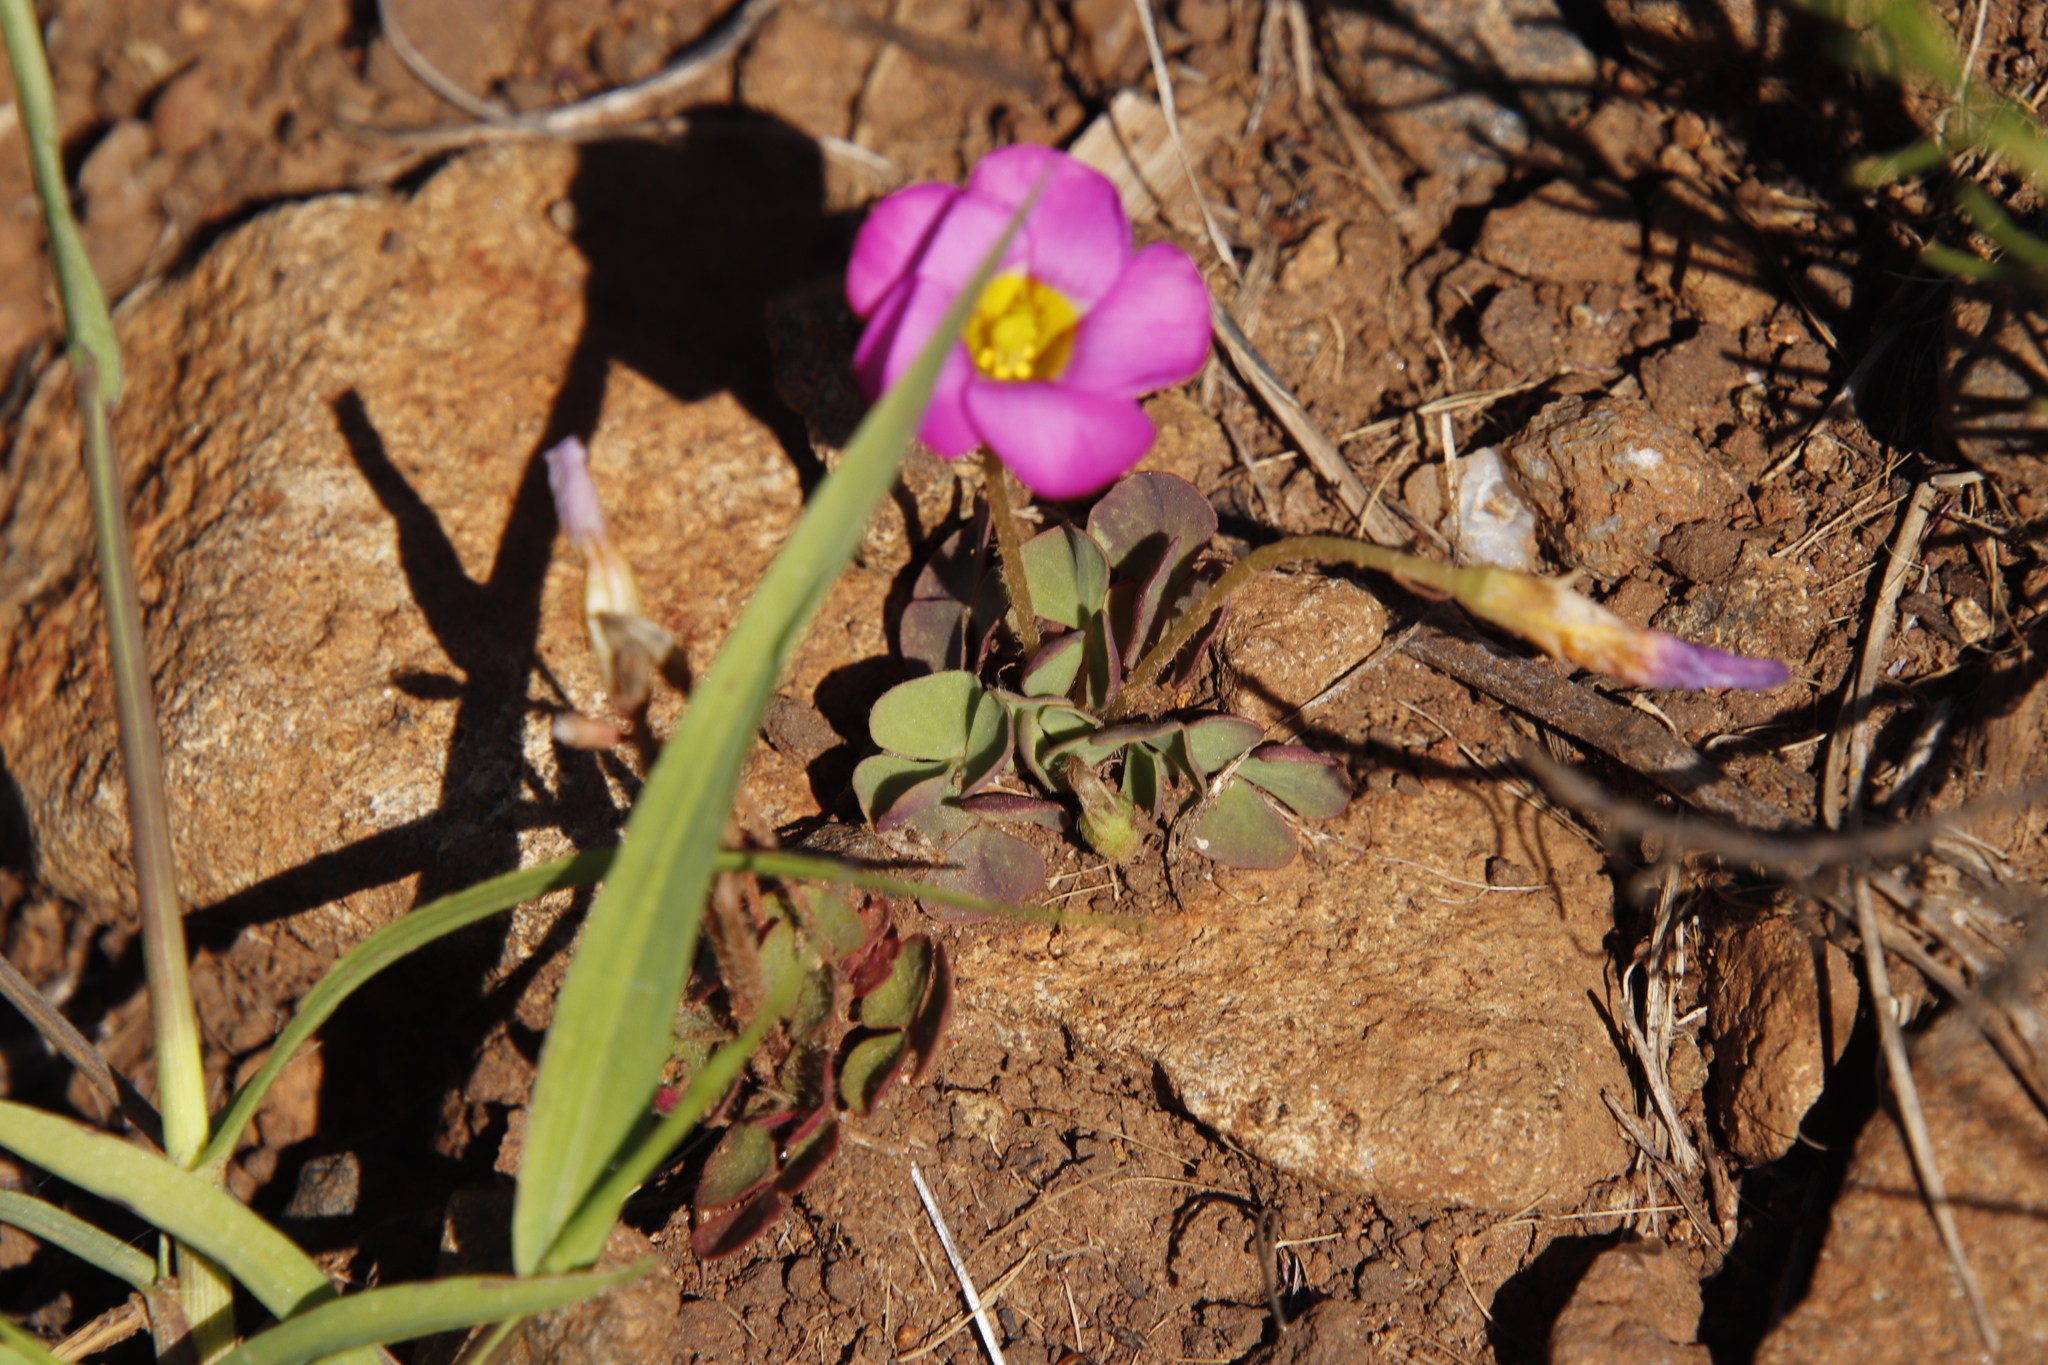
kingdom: Plantae
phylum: Tracheophyta
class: Magnoliopsida
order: Oxalidales
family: Oxalidaceae
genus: Oxalis
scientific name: Oxalis obliquifolia
